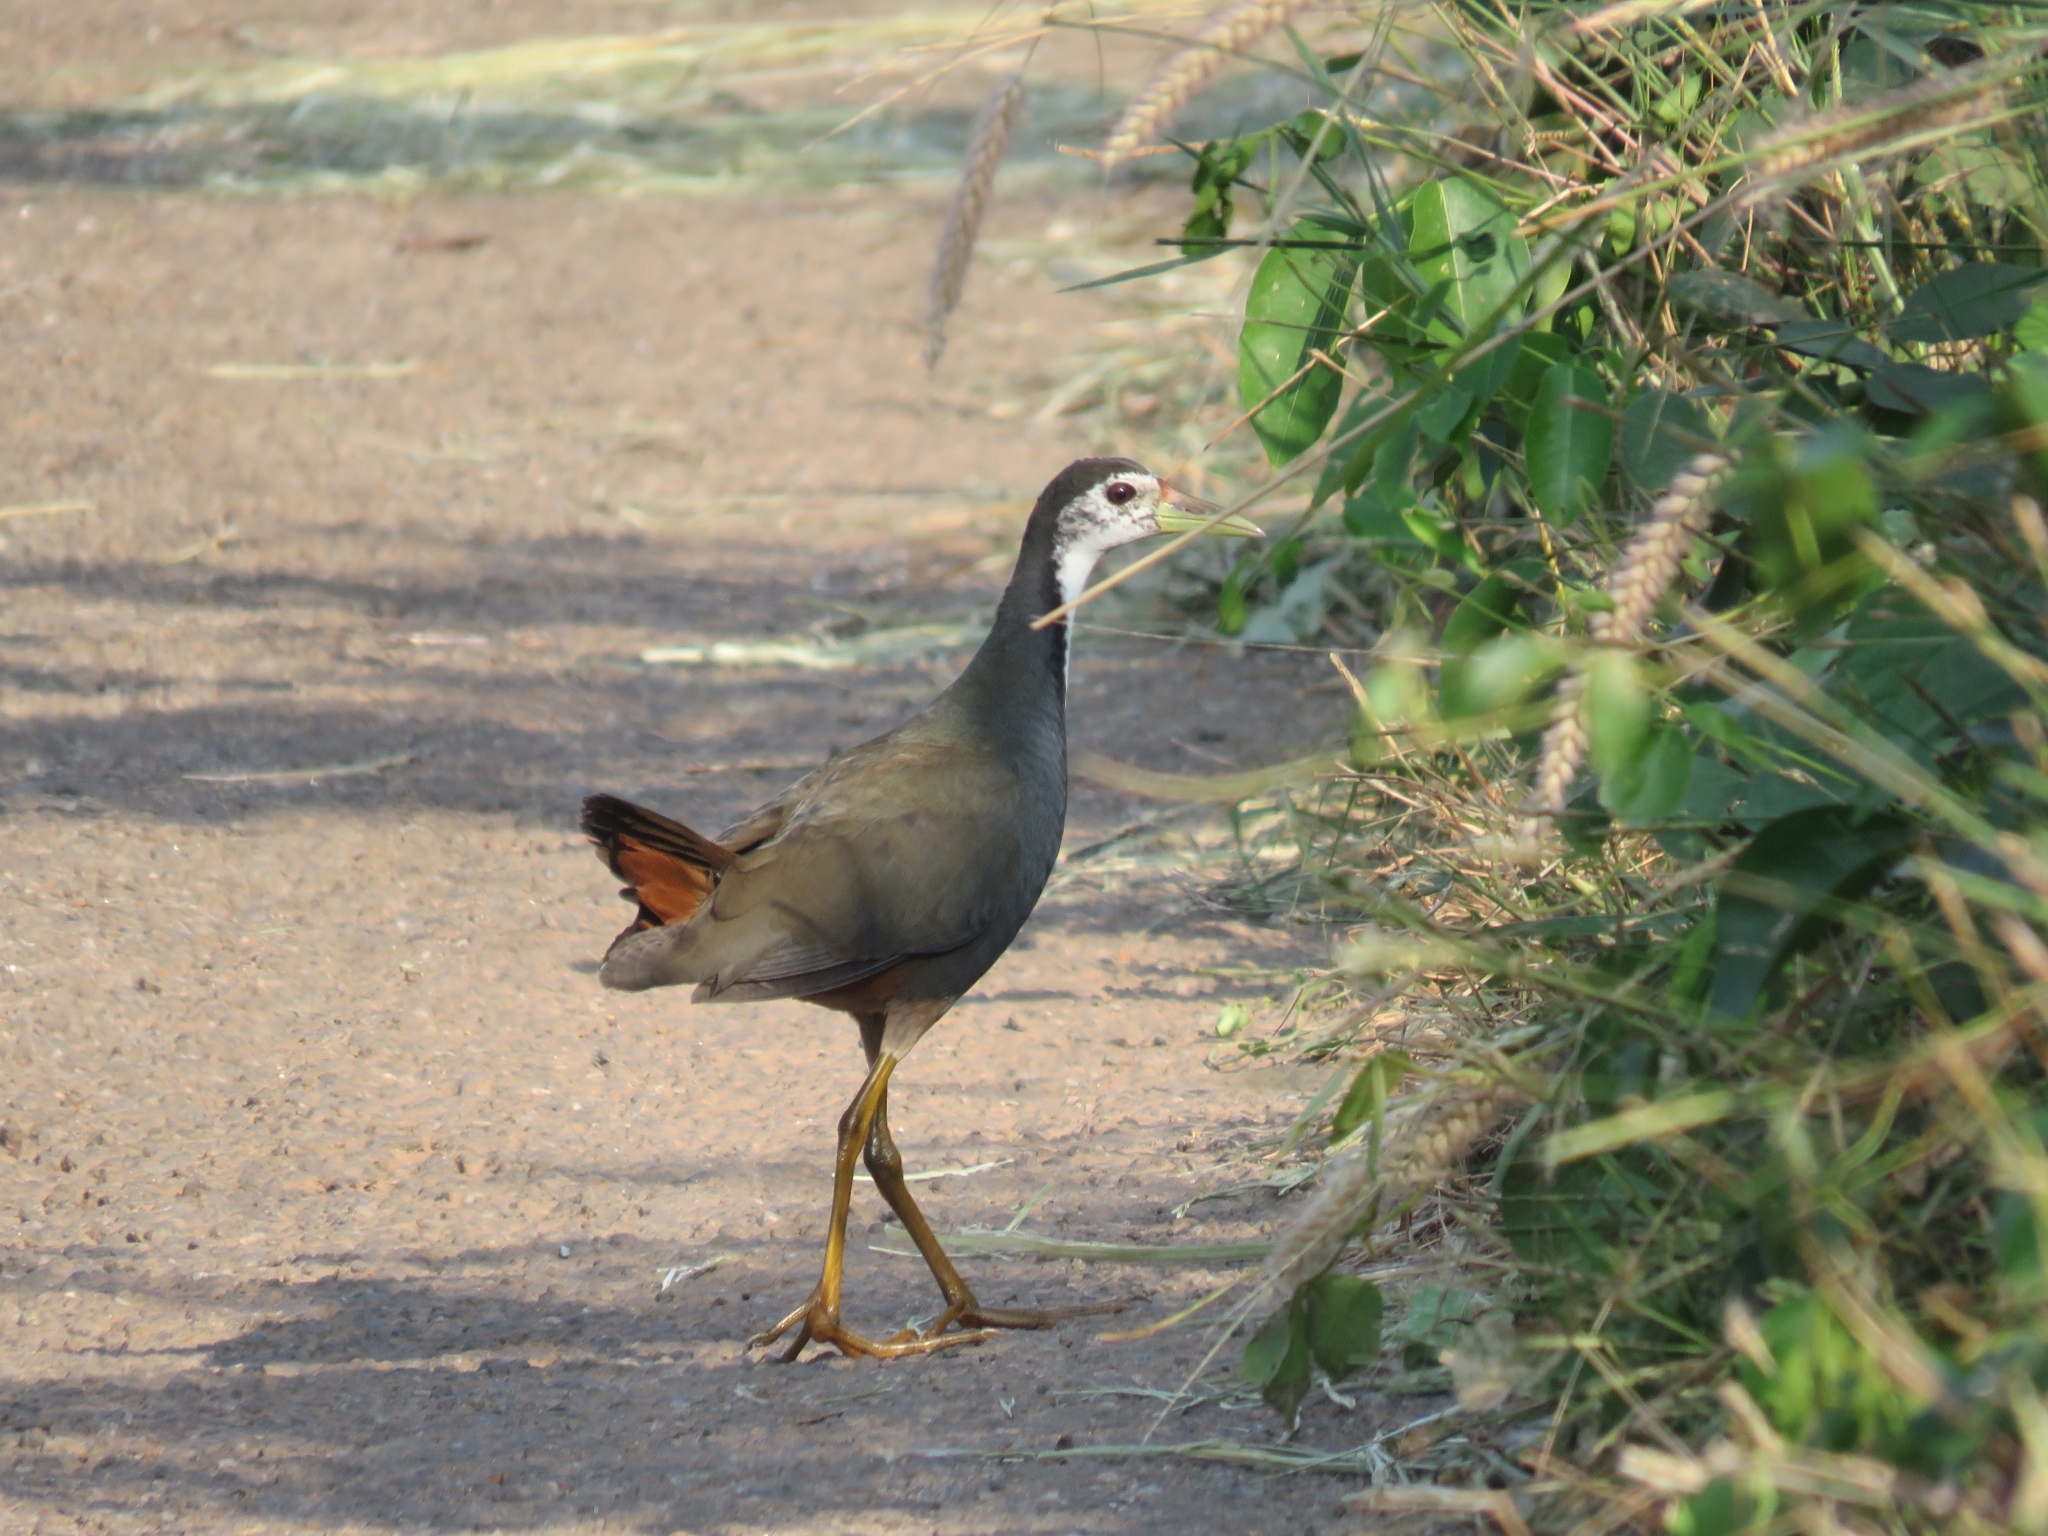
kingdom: Animalia
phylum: Chordata
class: Aves
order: Gruiformes
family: Rallidae
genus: Amaurornis
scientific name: Amaurornis phoenicurus
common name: White-breasted waterhen
